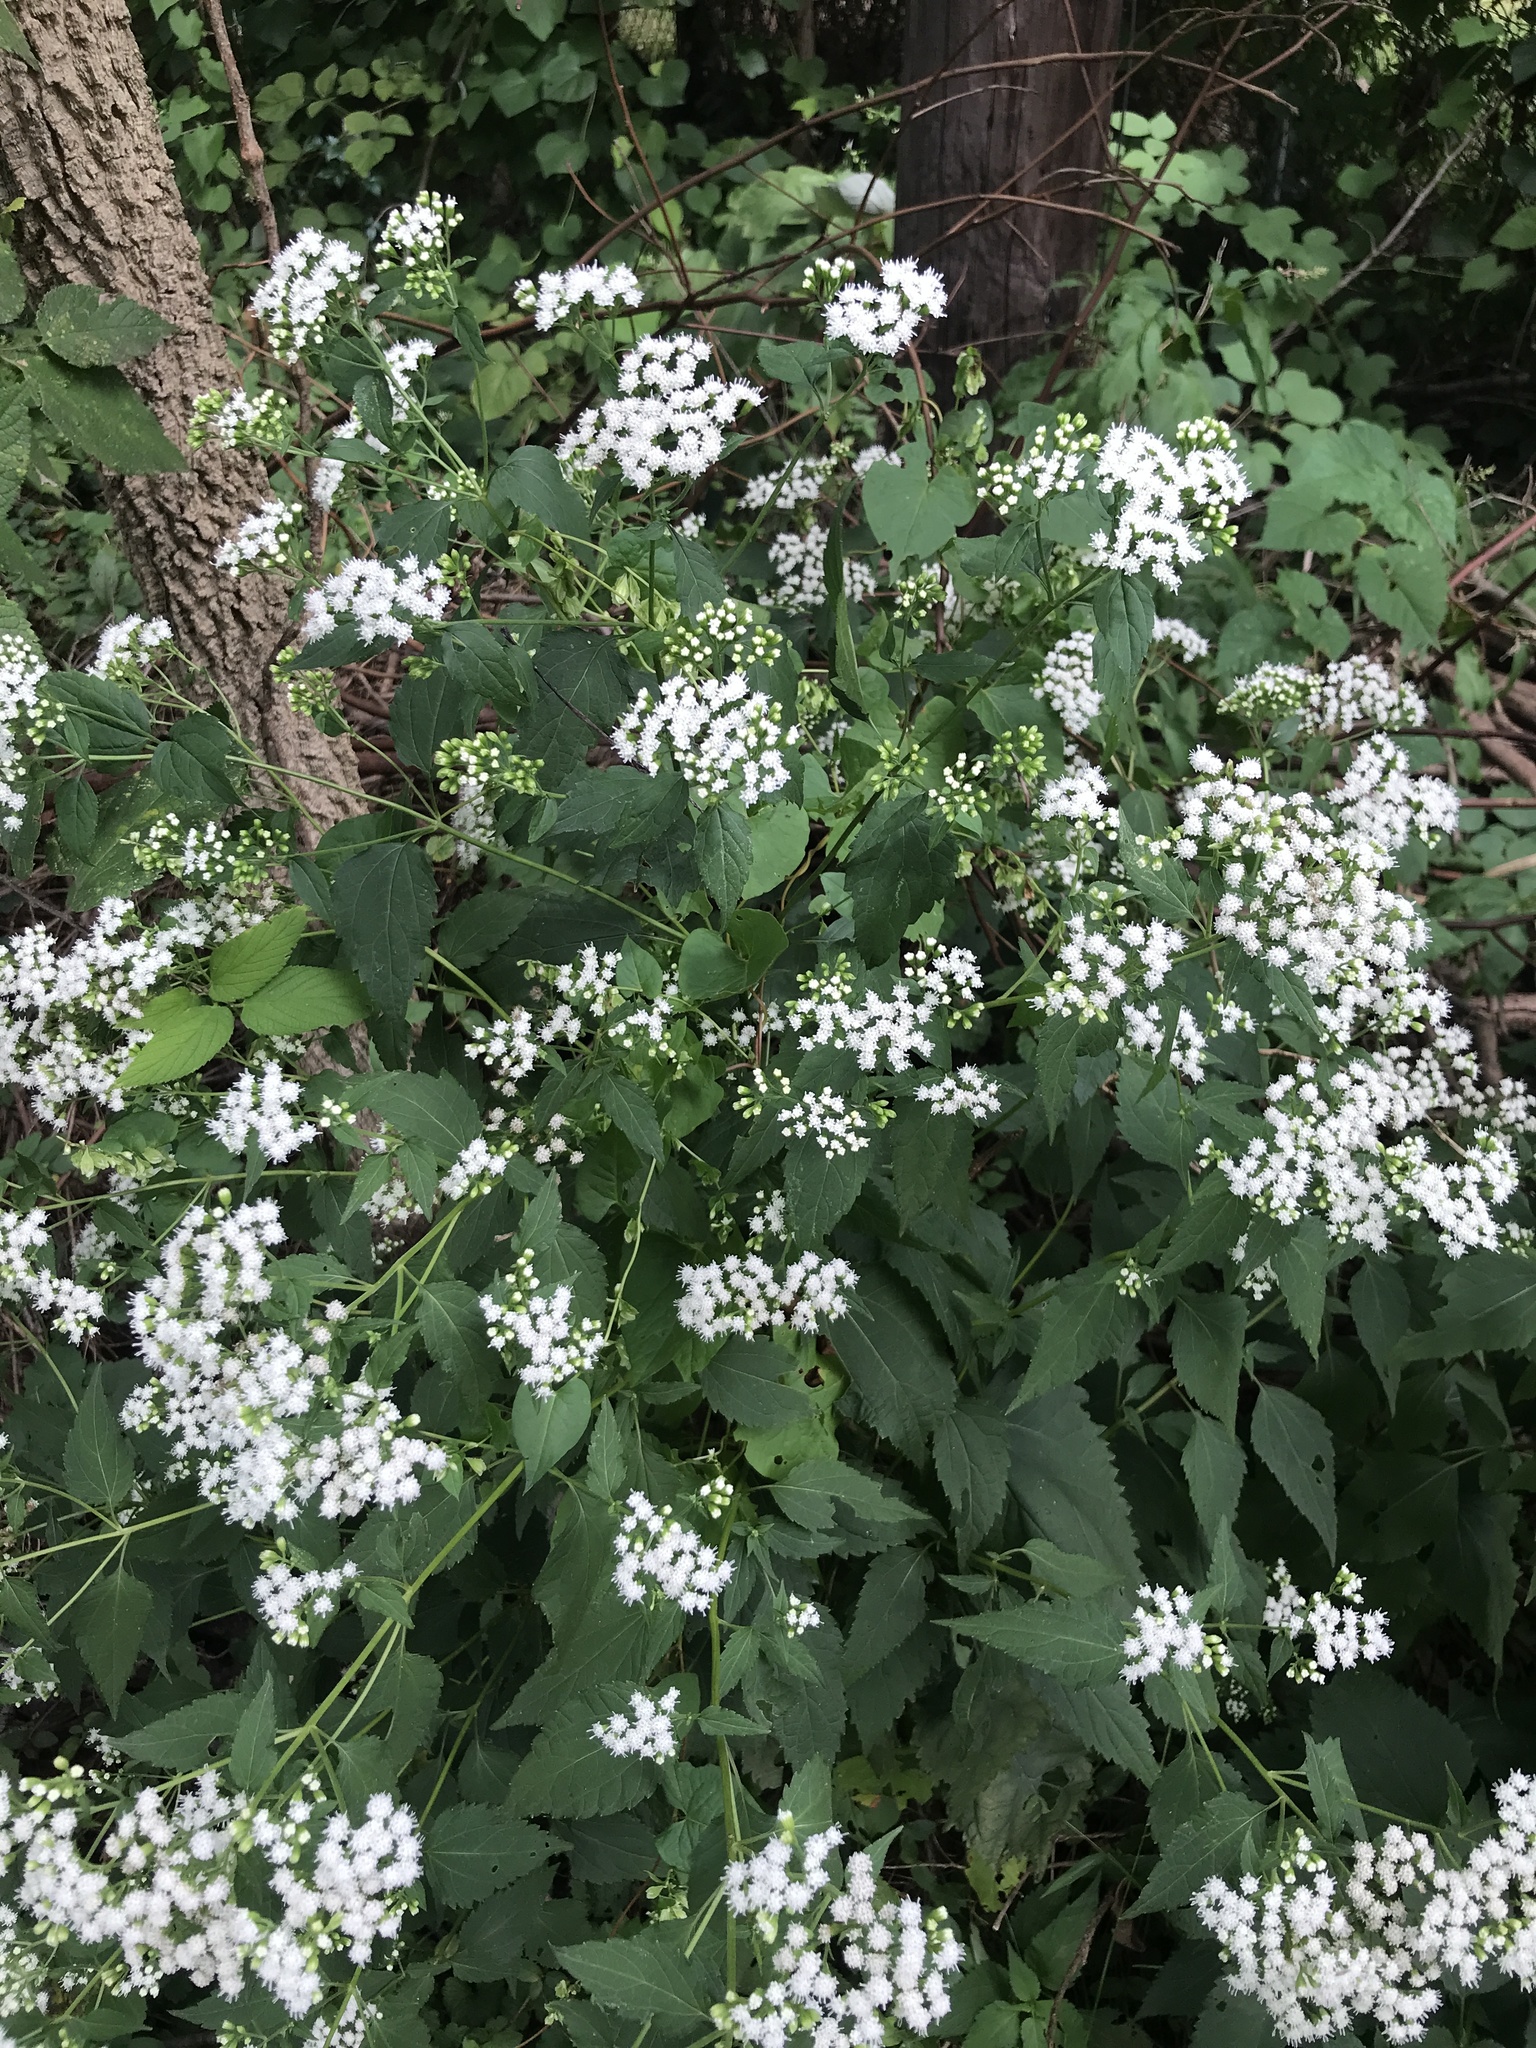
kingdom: Plantae
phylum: Tracheophyta
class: Magnoliopsida
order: Asterales
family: Asteraceae
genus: Ageratina
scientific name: Ageratina altissima
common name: White snakeroot
